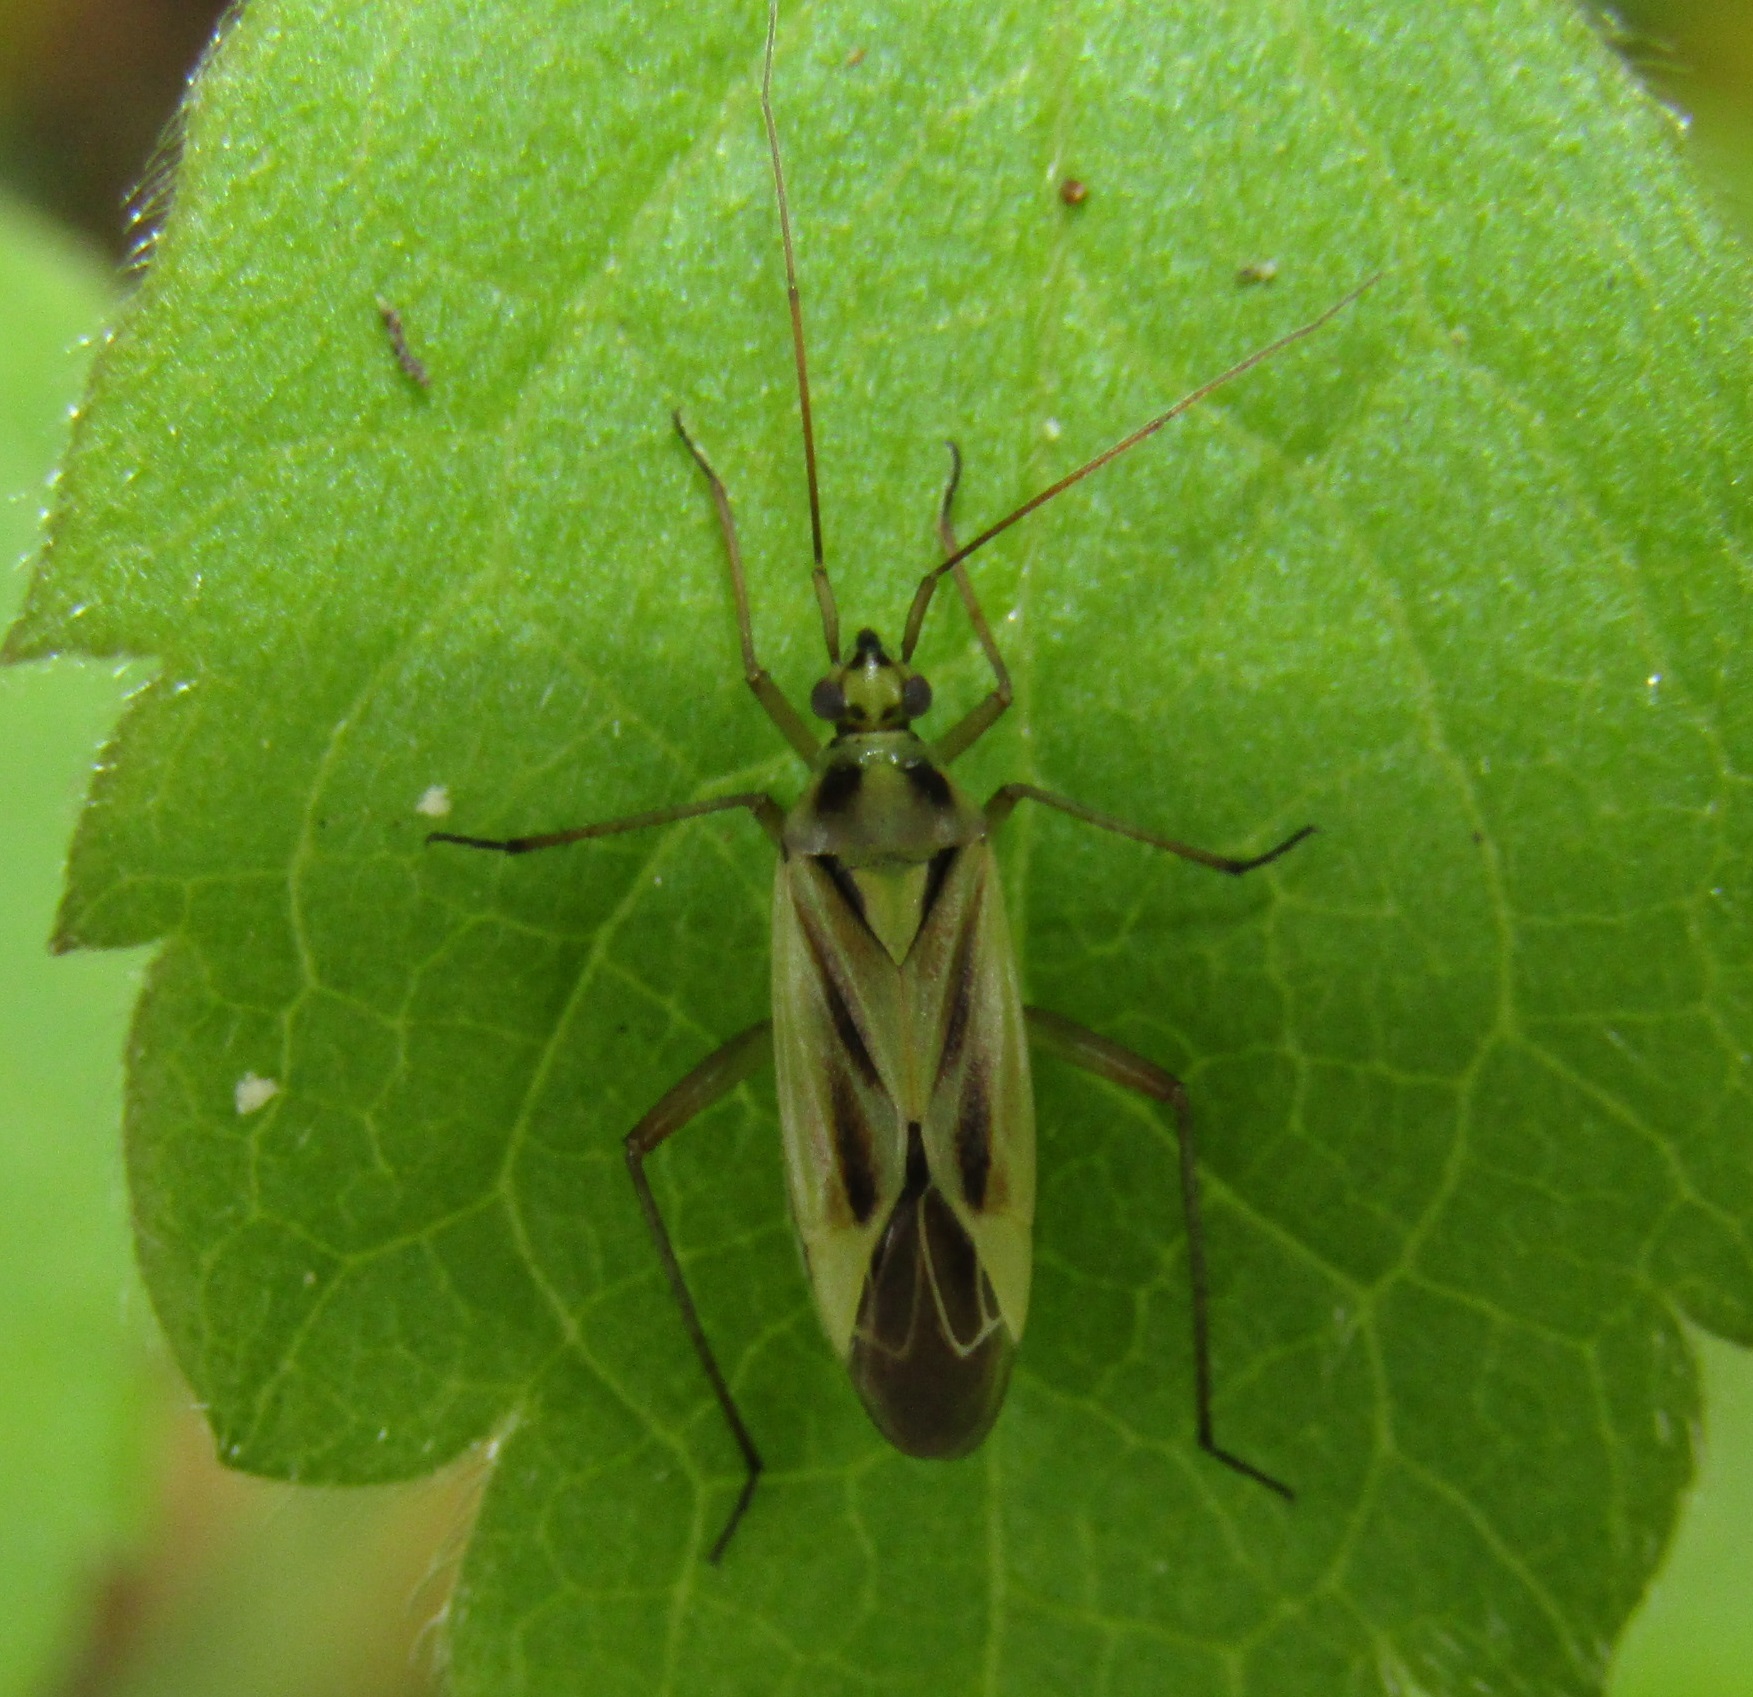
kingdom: Animalia
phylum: Arthropoda
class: Insecta
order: Hemiptera
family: Miridae
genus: Stenotus
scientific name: Stenotus binotatus
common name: Plant bug
